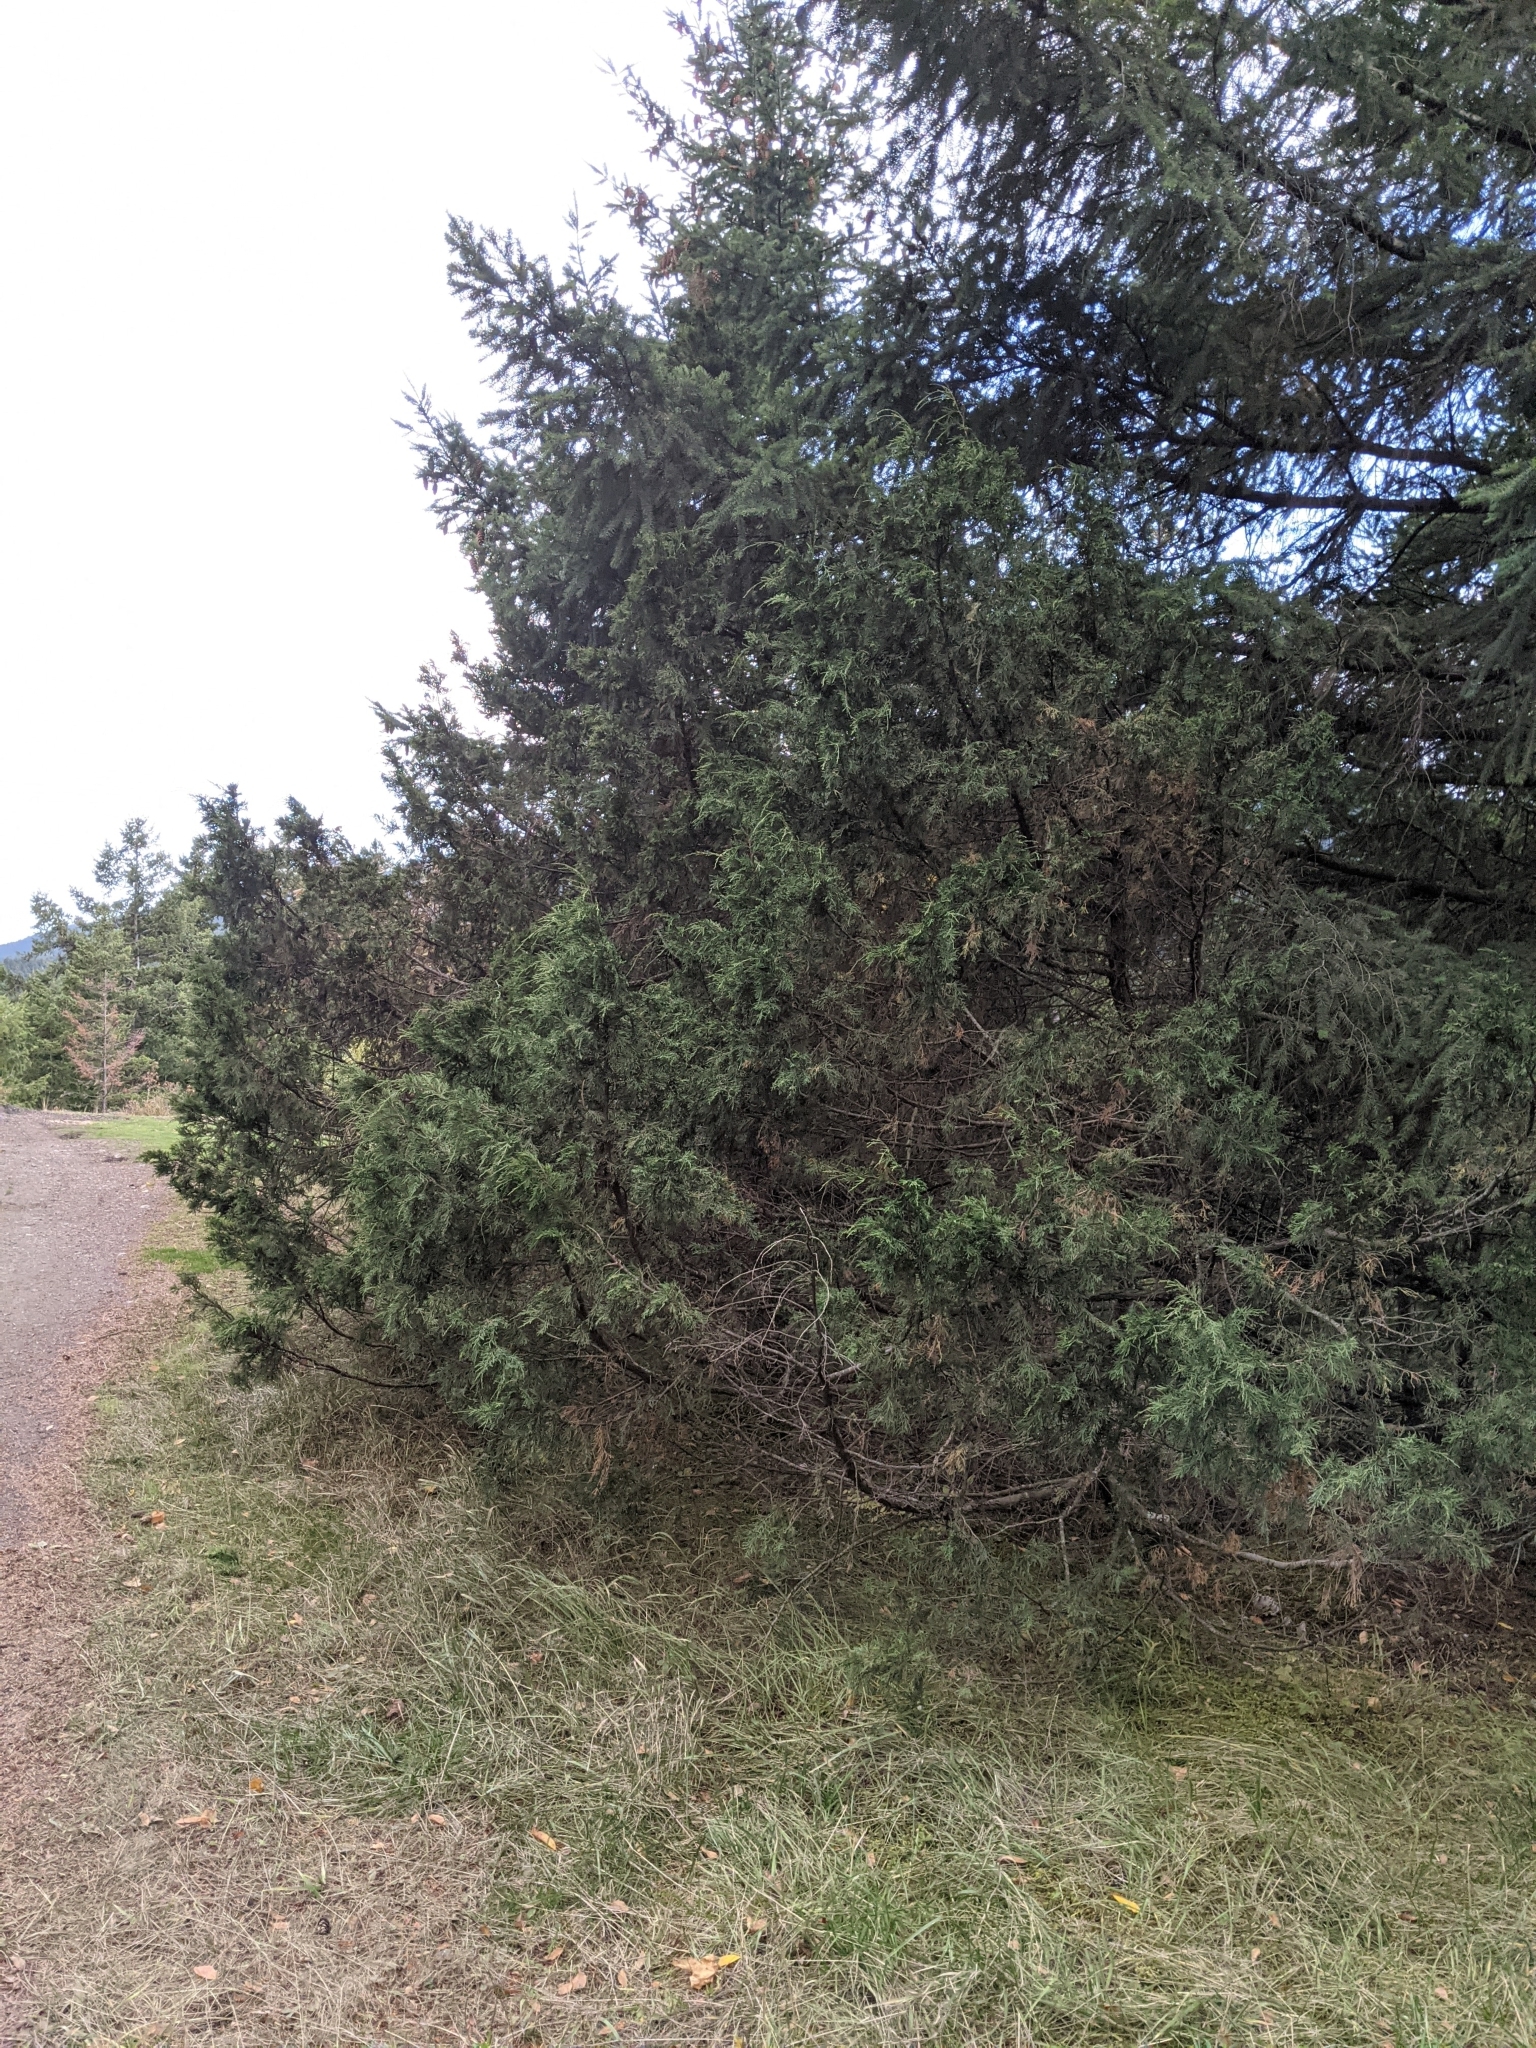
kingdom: Plantae
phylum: Tracheophyta
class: Pinopsida
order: Pinales
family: Cupressaceae
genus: Juniperus
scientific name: Juniperus scopulorum
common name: Rocky mountain juniper
